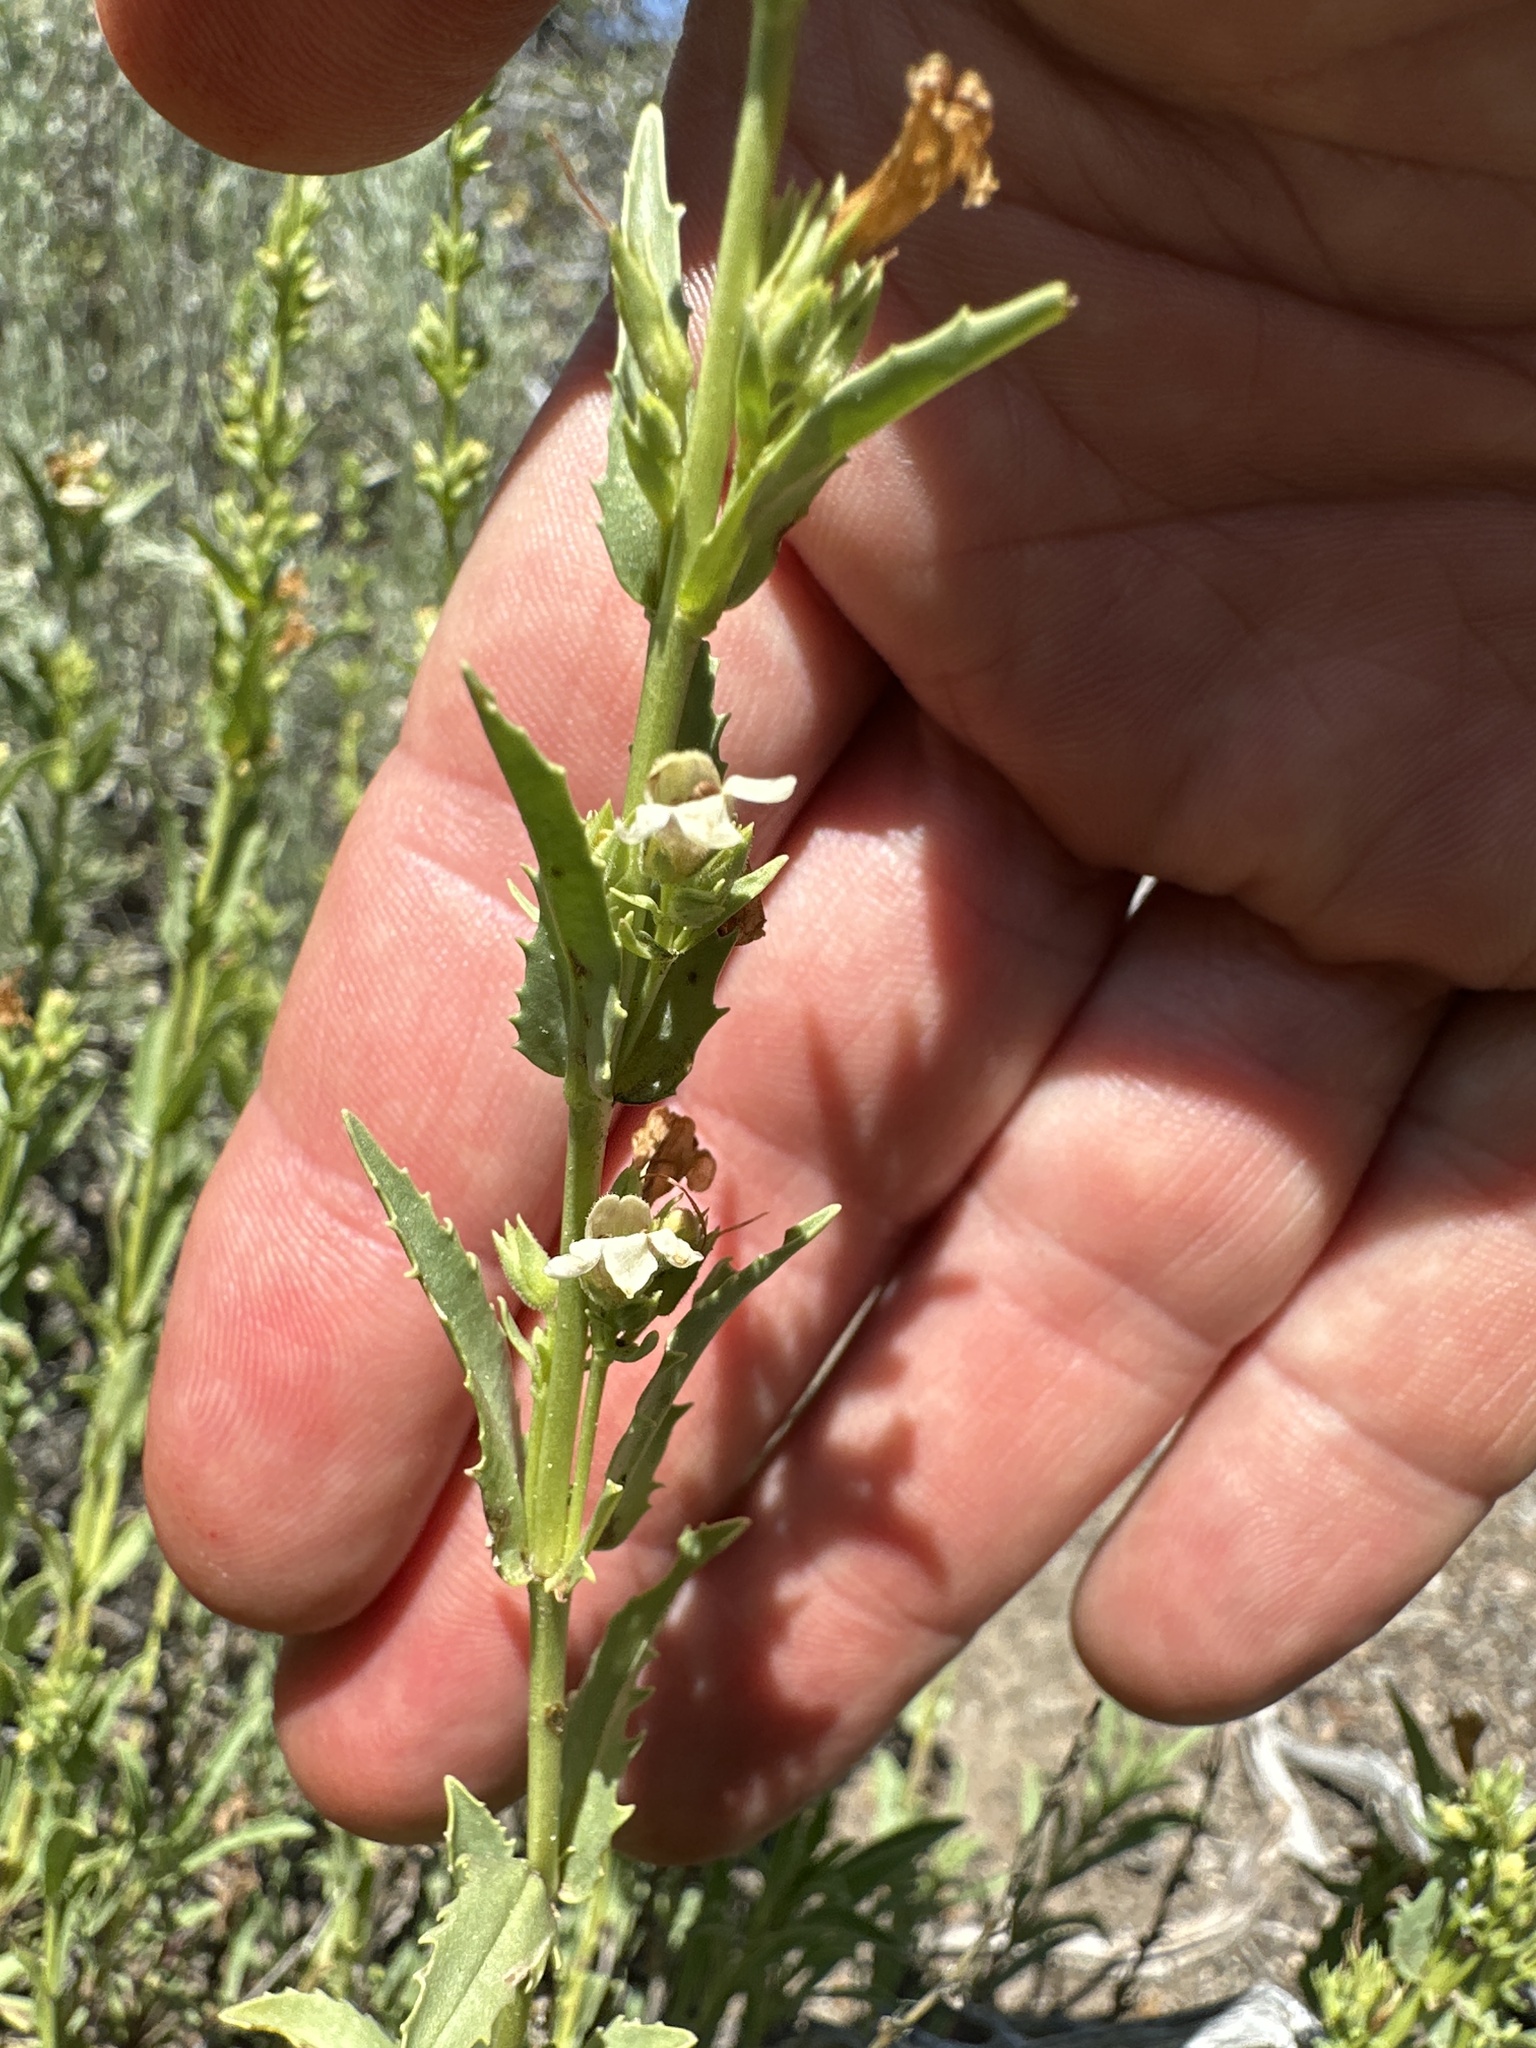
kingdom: Plantae
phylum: Tracheophyta
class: Magnoliopsida
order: Lamiales
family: Plantaginaceae
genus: Penstemon
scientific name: Penstemon deustus
